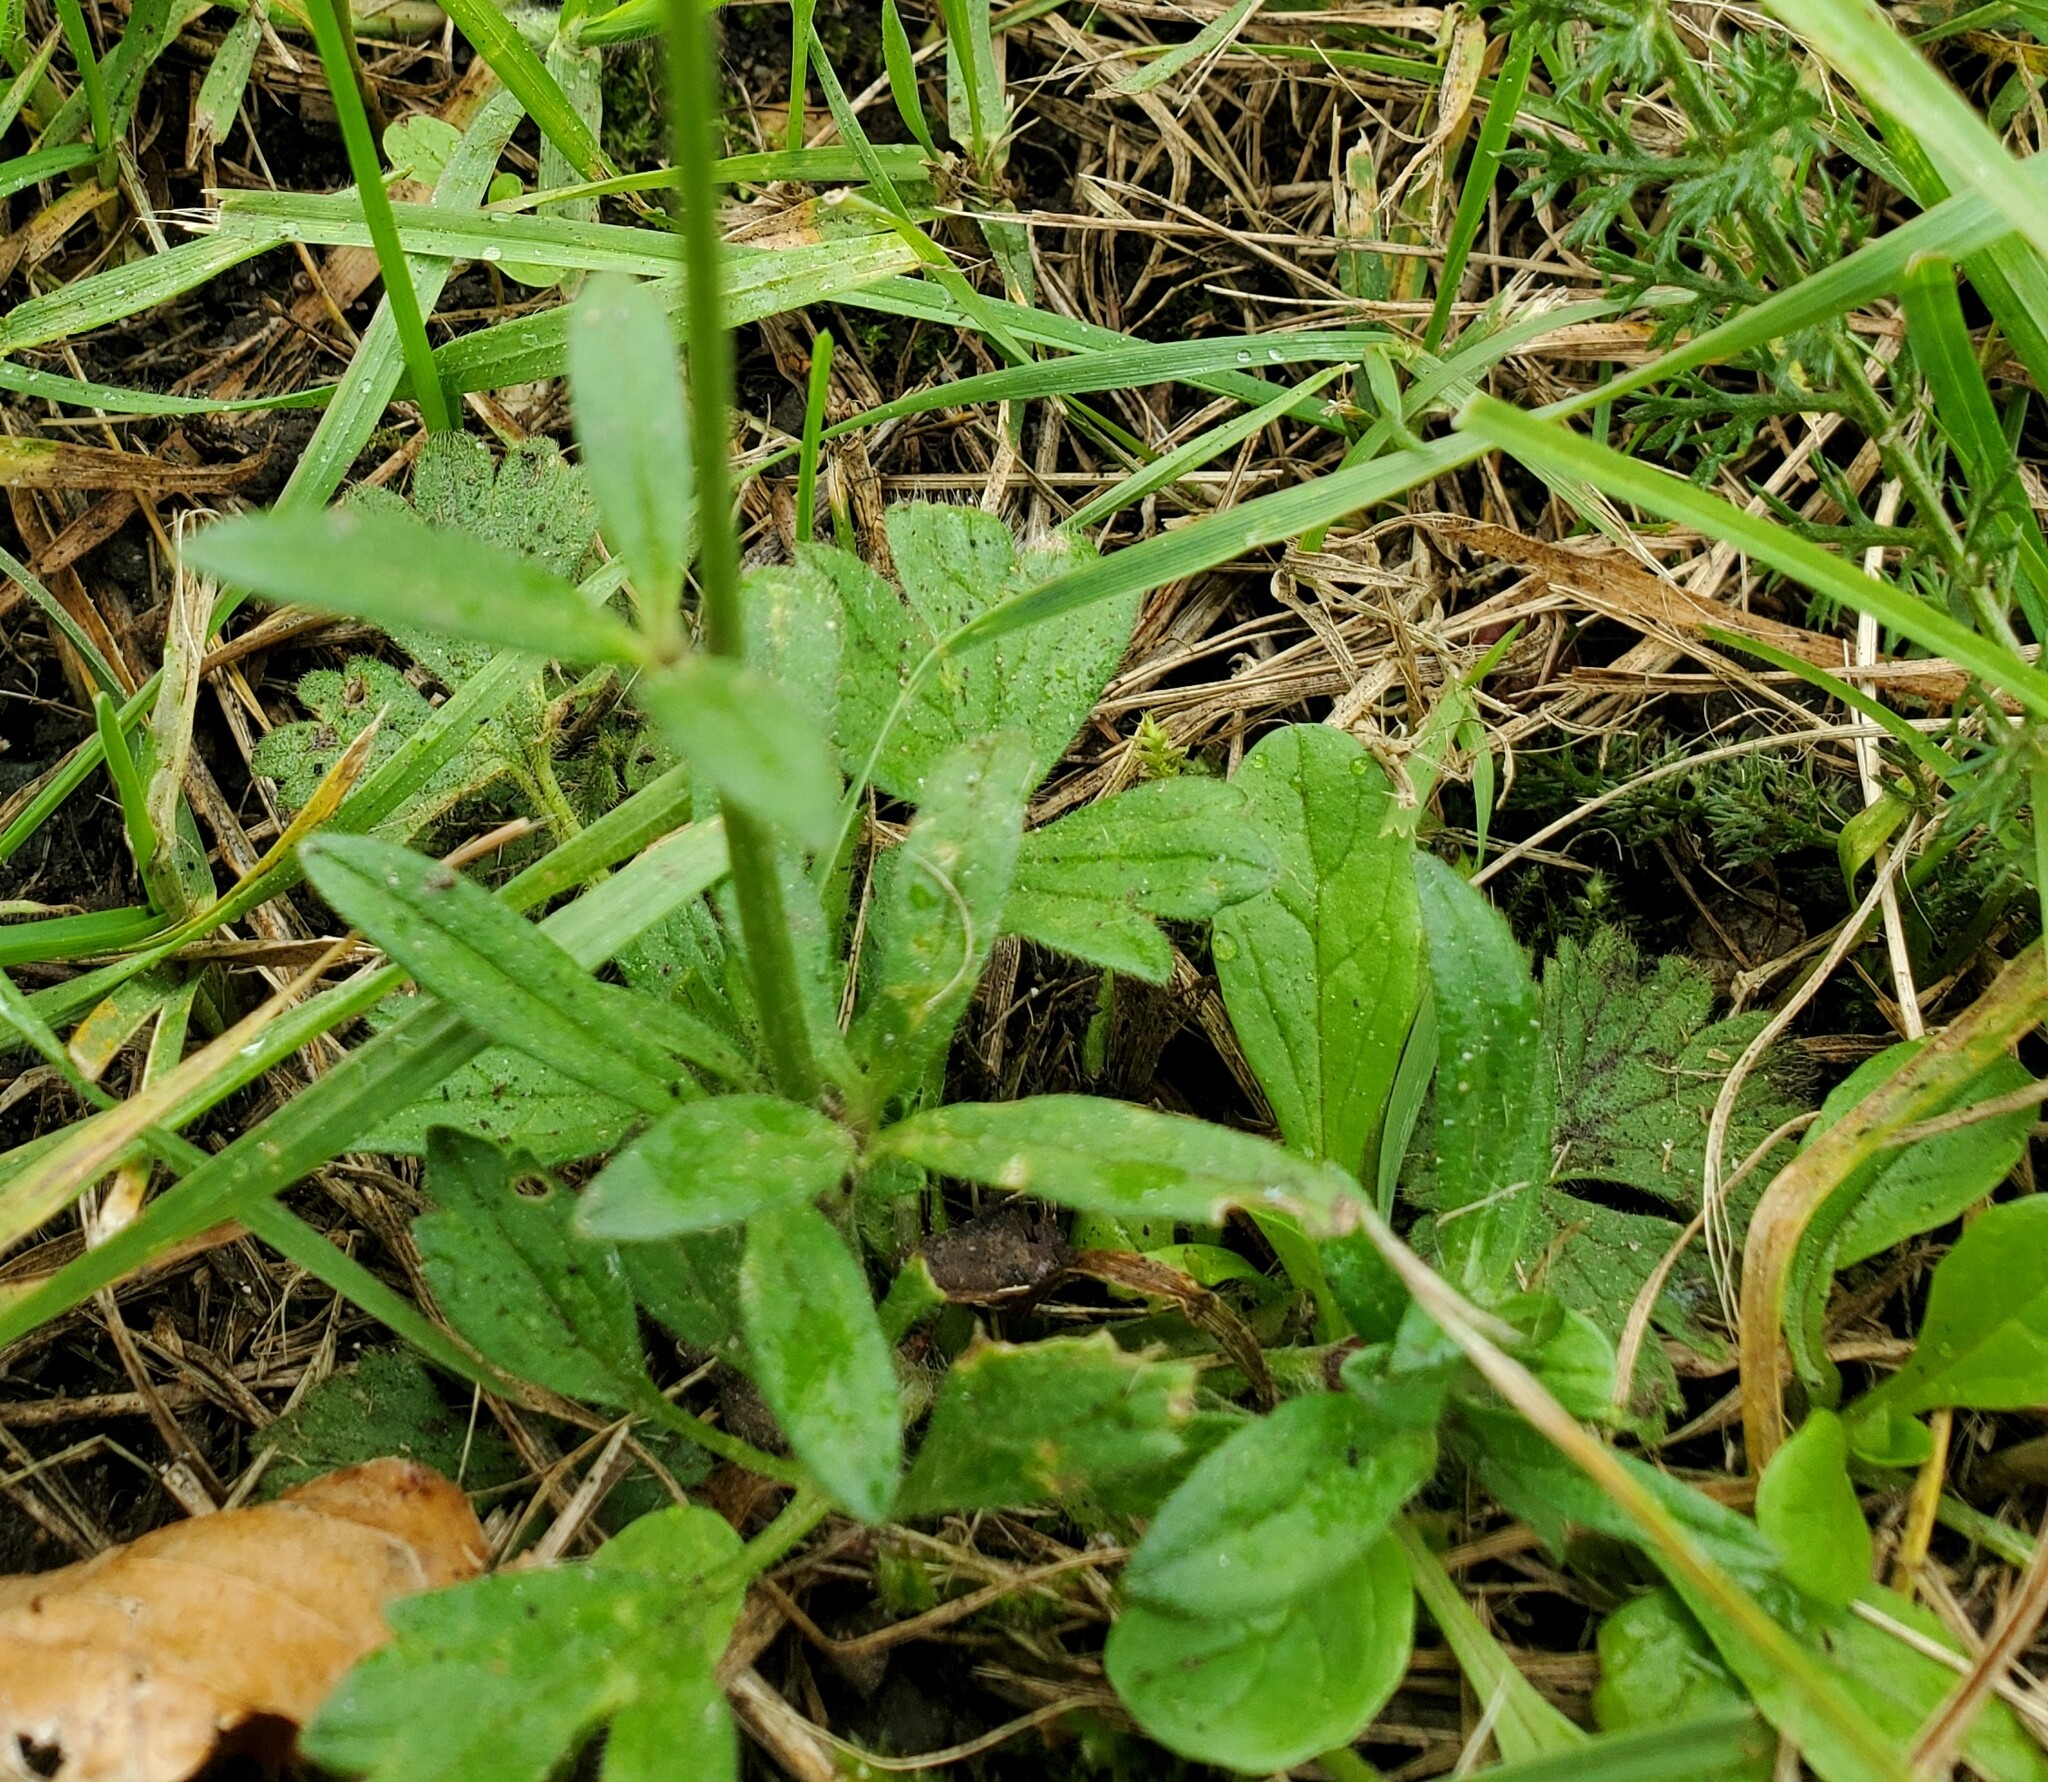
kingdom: Plantae
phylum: Tracheophyta
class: Magnoliopsida
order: Ranunculales
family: Ranunculaceae
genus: Ranunculus
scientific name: Ranunculus bulbosus
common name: Bulbous buttercup
